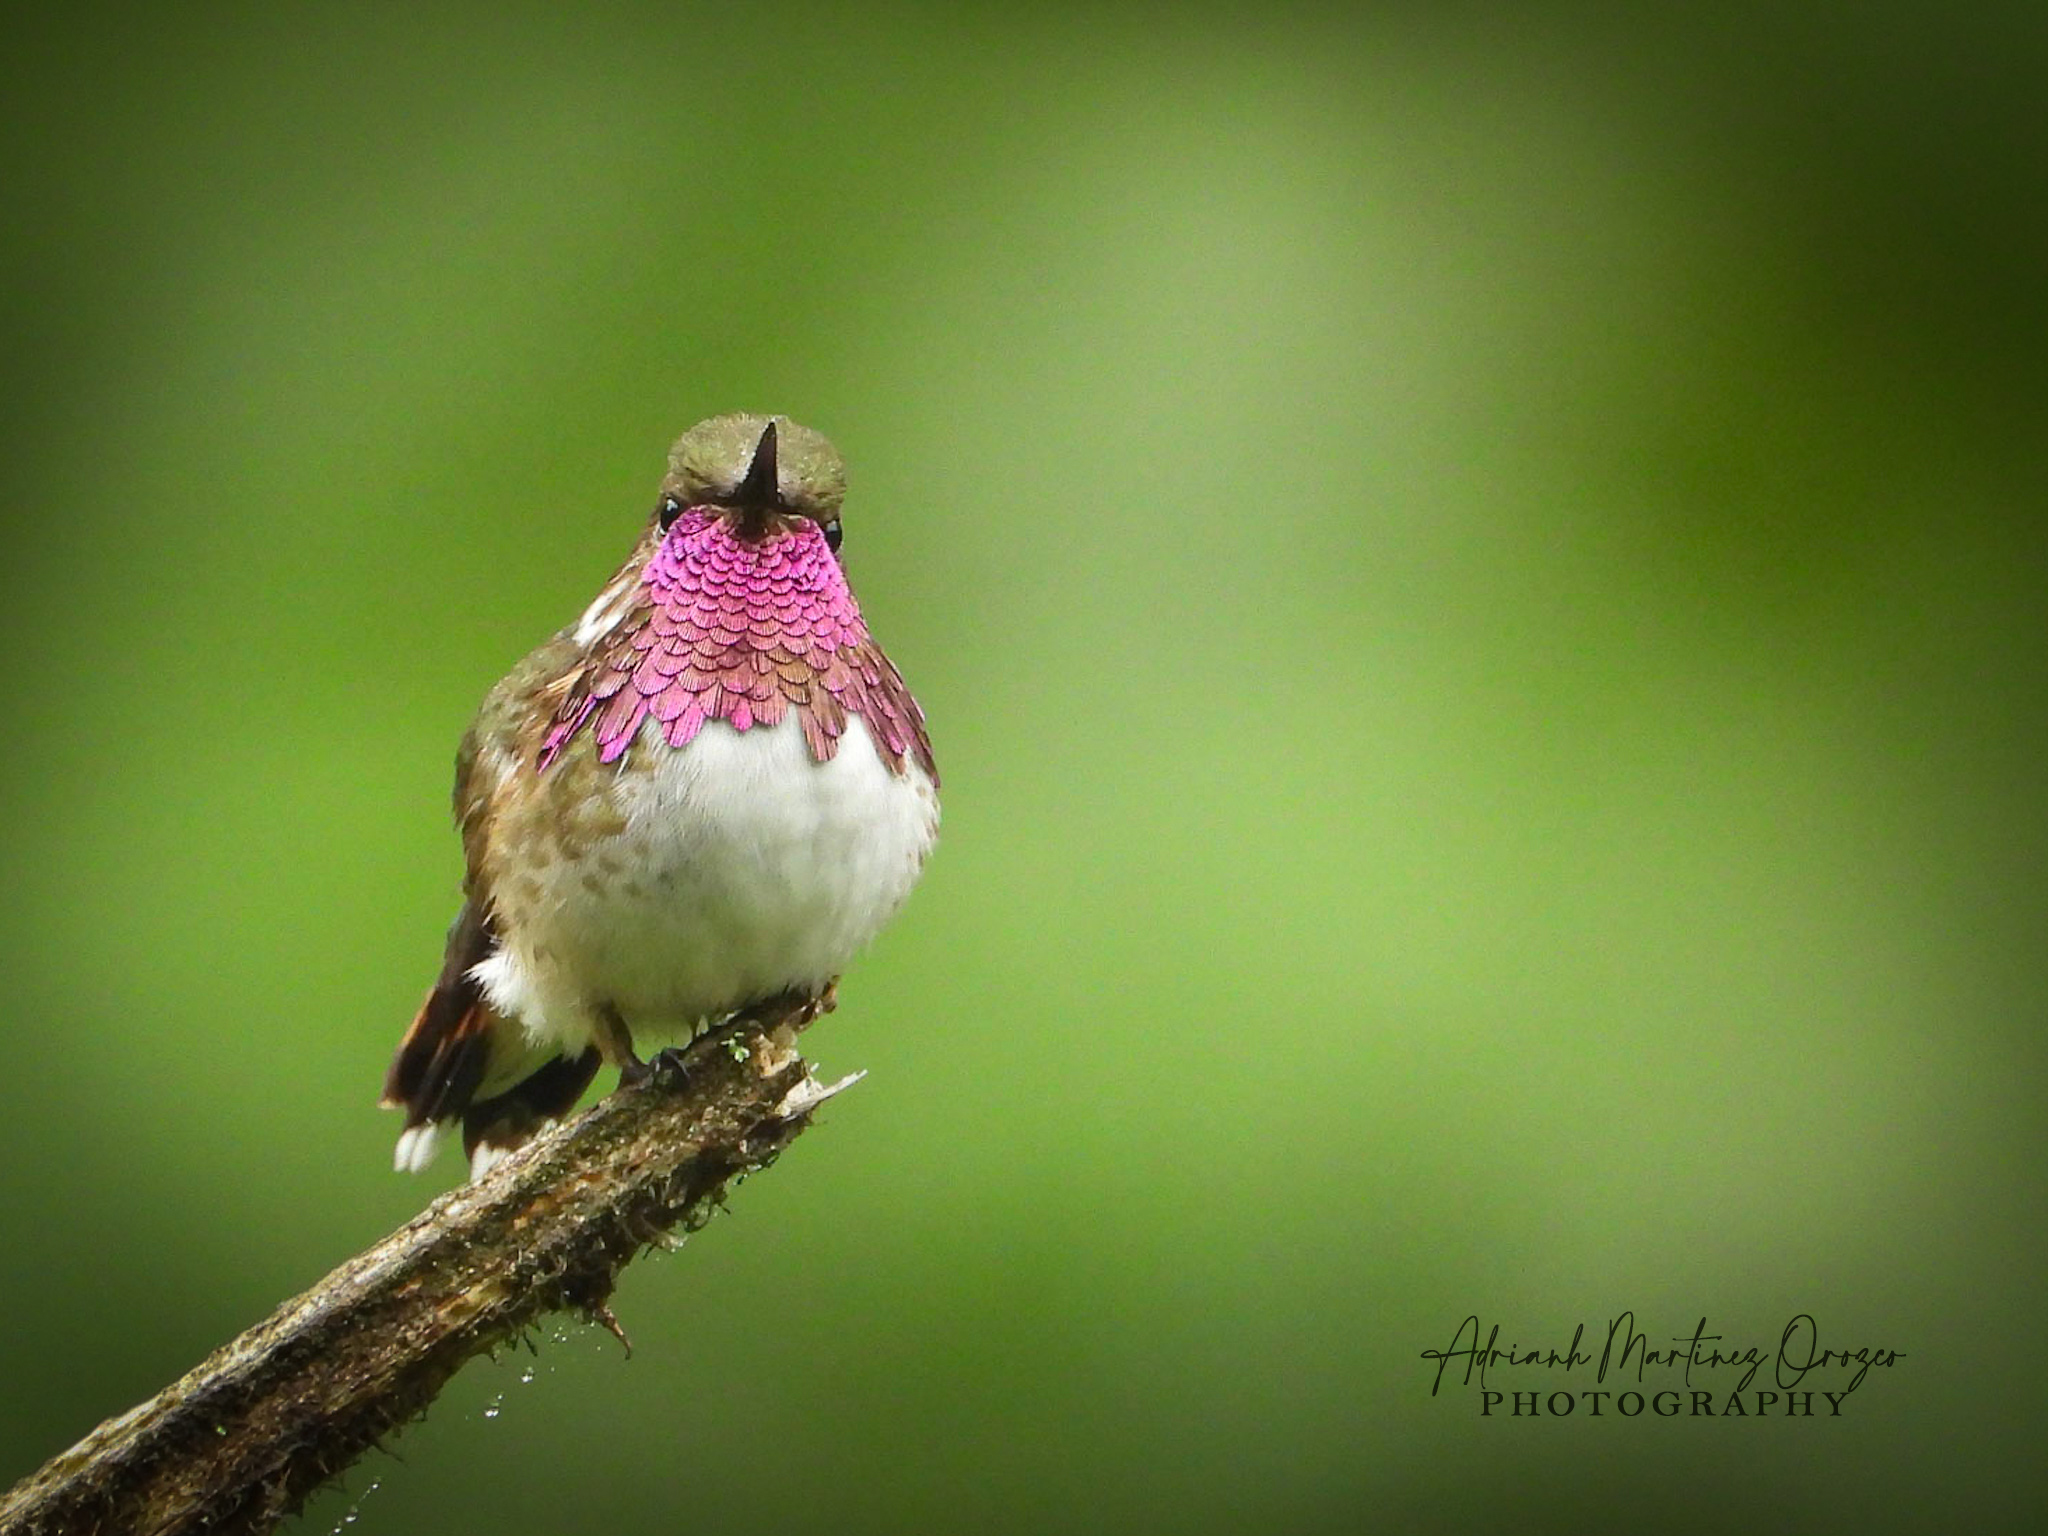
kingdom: Animalia
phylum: Chordata
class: Aves
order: Apodiformes
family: Trochilidae
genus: Selasphorus
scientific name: Selasphorus heloisa
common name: Bumblebee hummingbird
